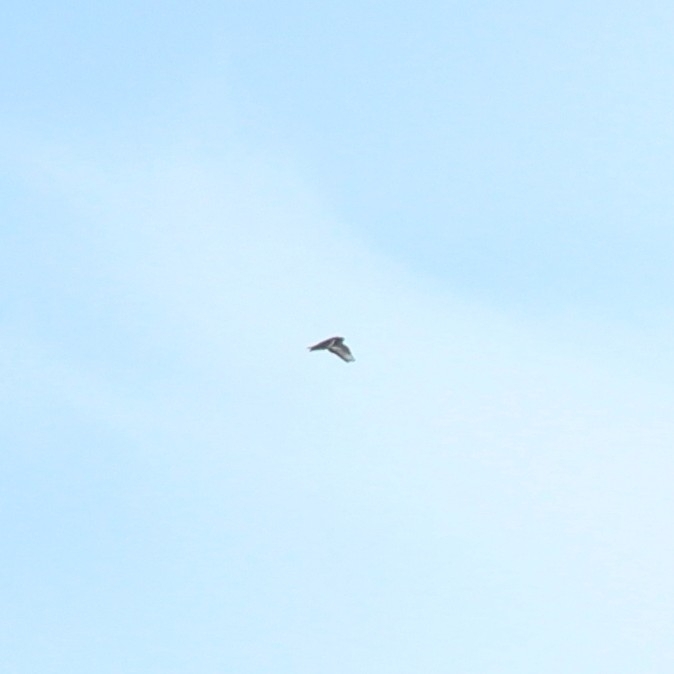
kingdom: Animalia
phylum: Chordata
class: Aves
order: Accipitriformes
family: Accipitridae
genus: Buteo
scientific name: Buteo buteo
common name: Common buzzard
